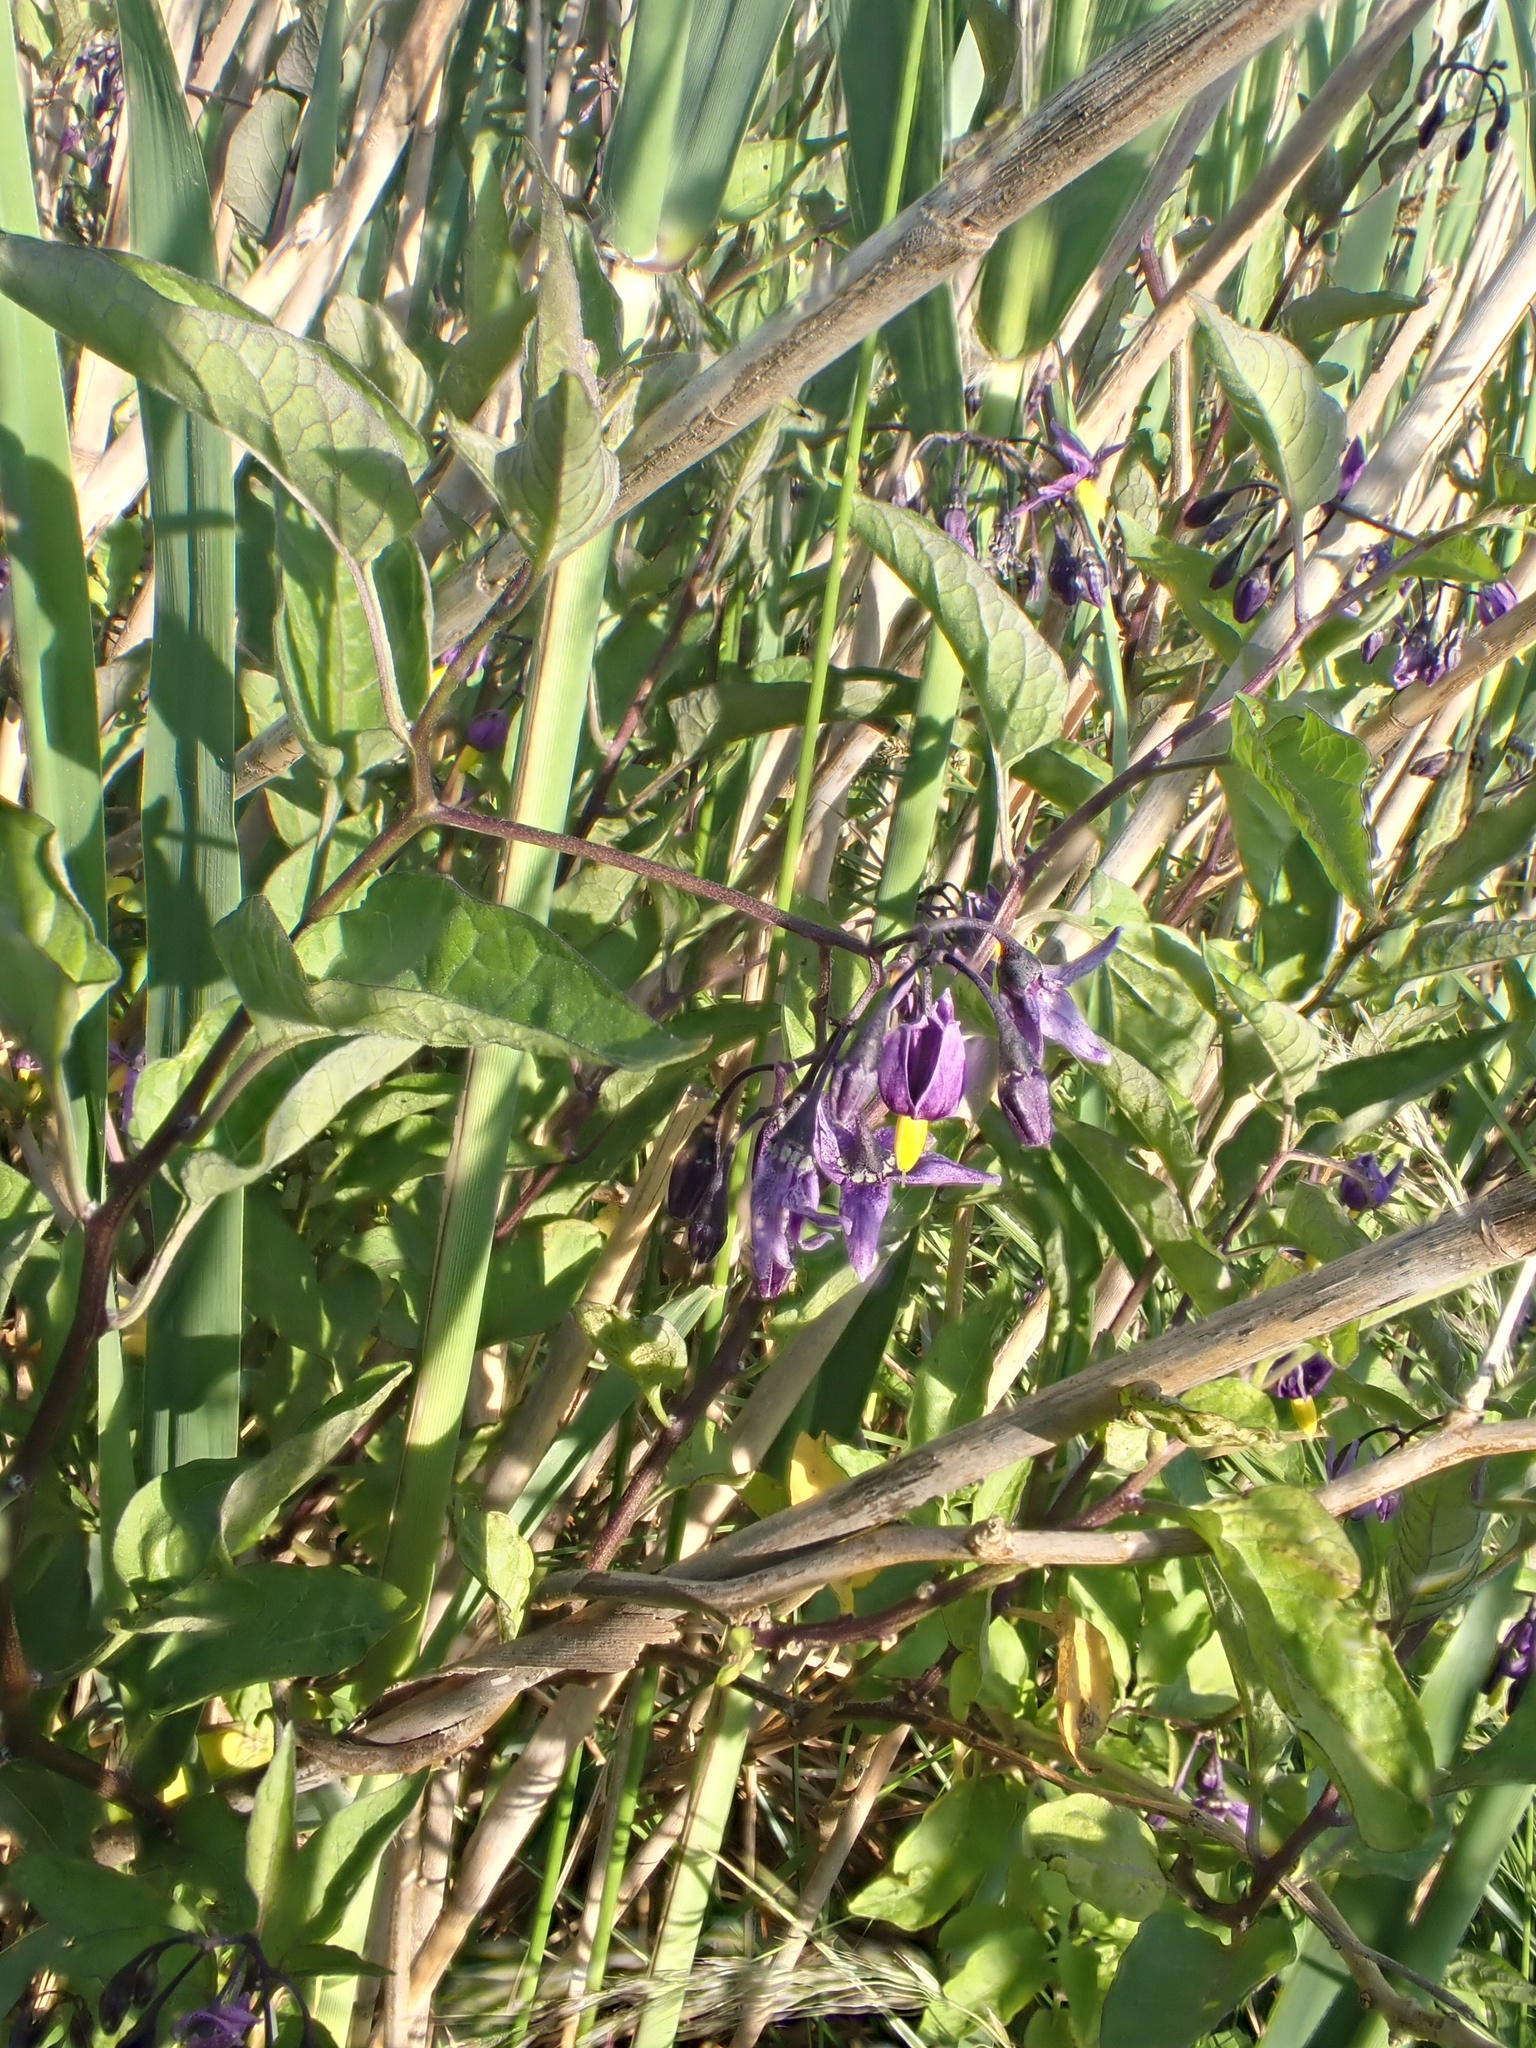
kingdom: Plantae
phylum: Tracheophyta
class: Magnoliopsida
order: Solanales
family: Solanaceae
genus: Solanum
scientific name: Solanum dulcamara
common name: Climbing nightshade
